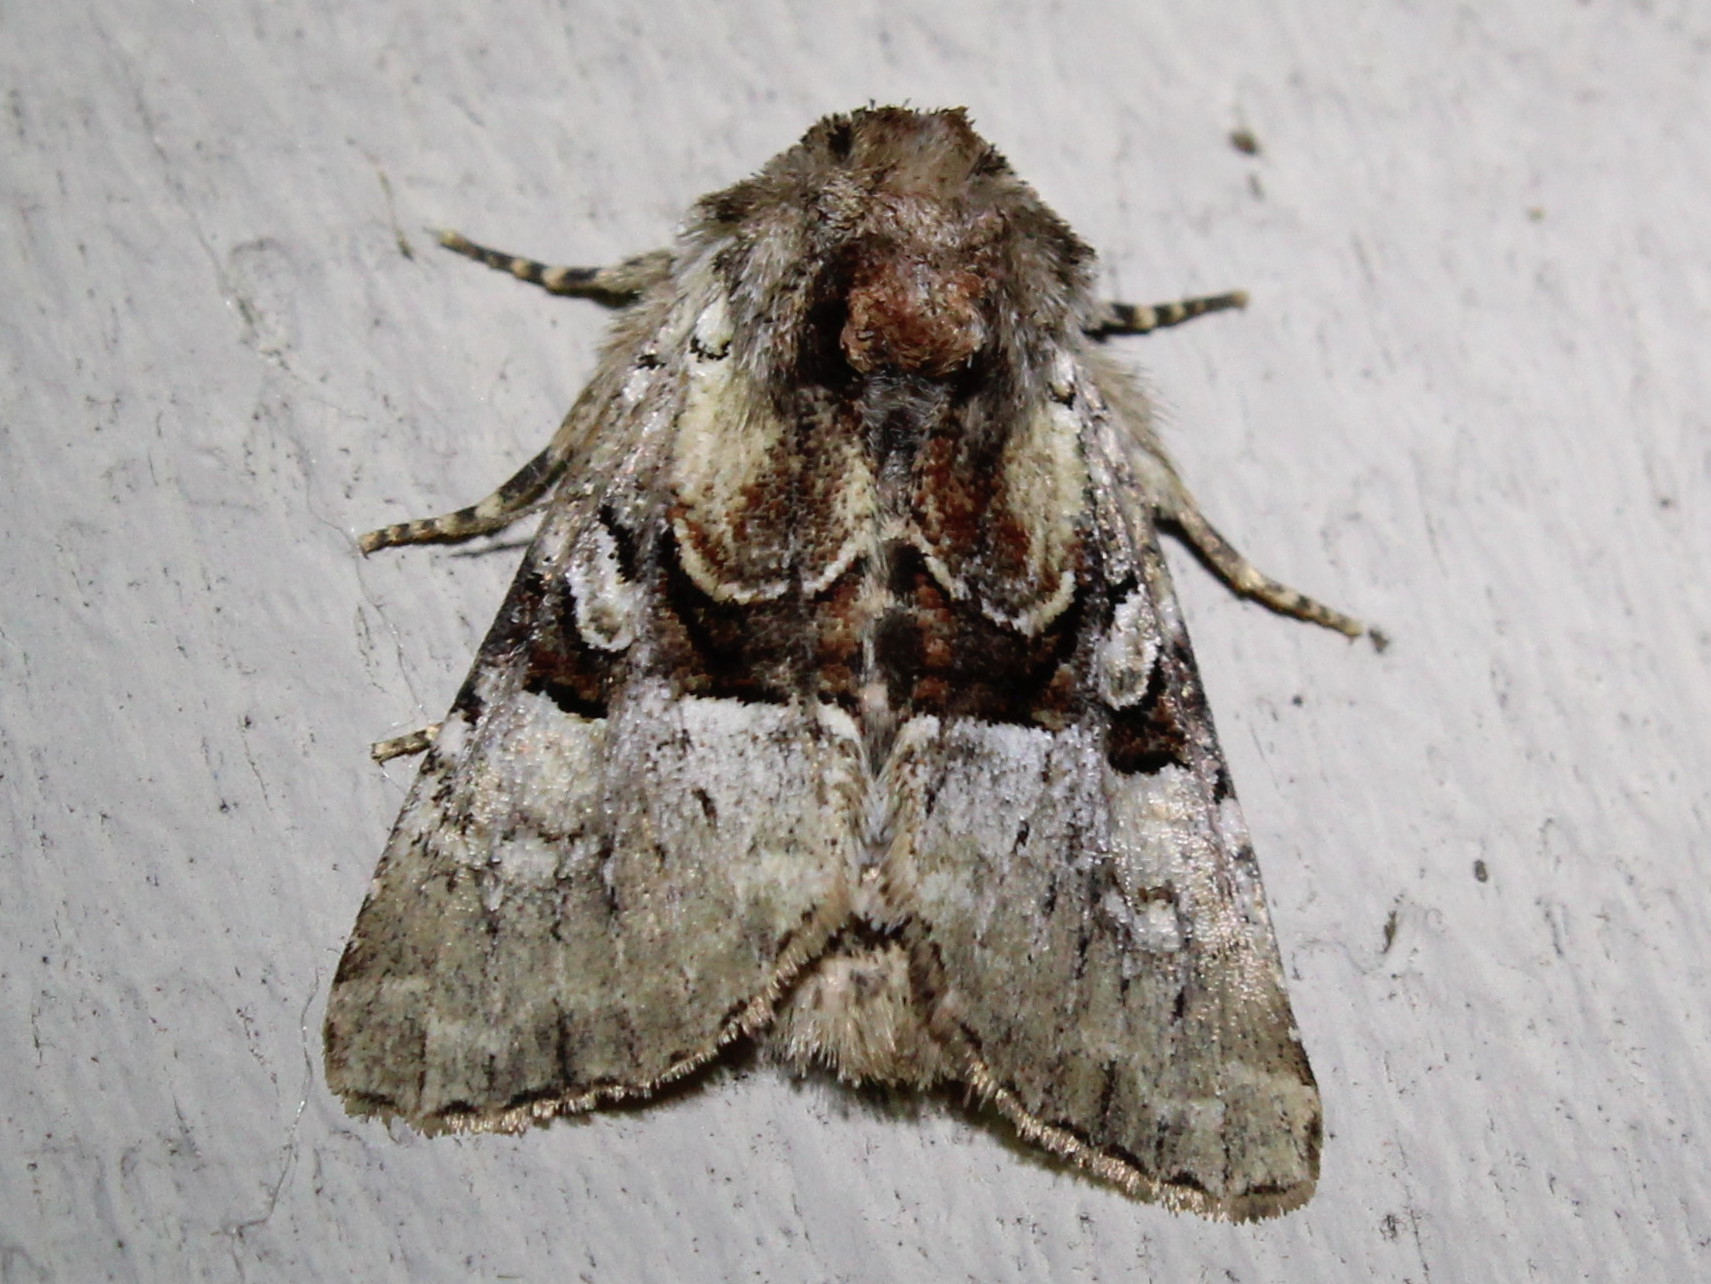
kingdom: Animalia
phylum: Arthropoda
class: Insecta
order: Lepidoptera
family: Noctuidae
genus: Meropleon
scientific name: Meropleon diversicolor
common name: Multicolored sedgeminer moth
